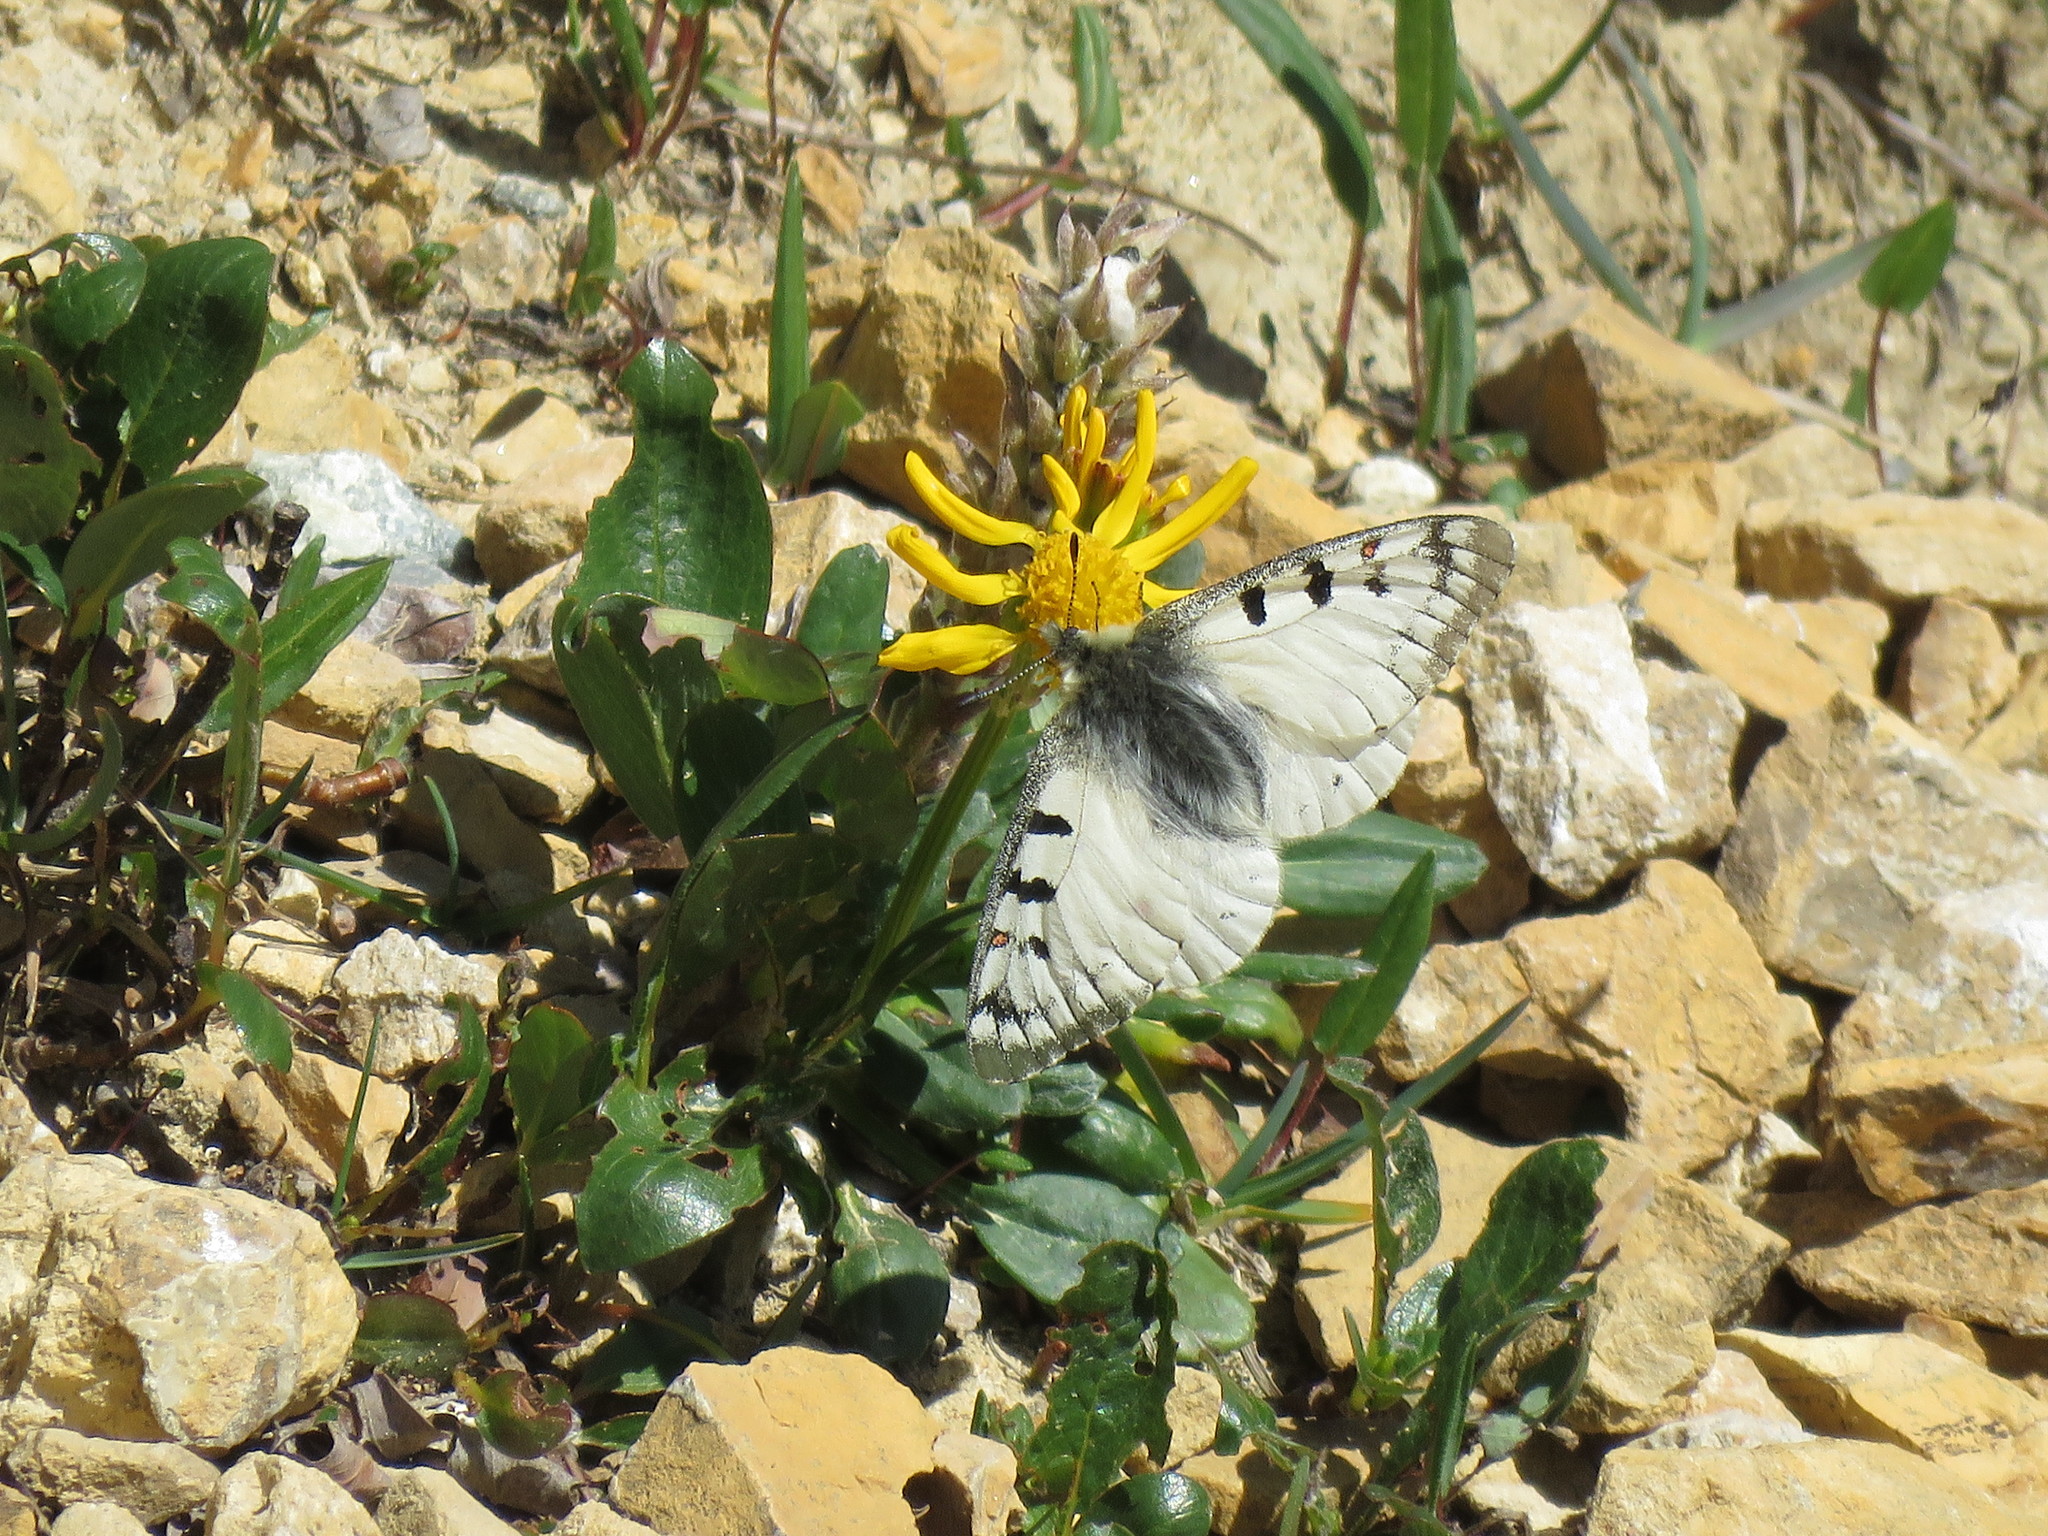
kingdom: Animalia
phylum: Arthropoda
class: Insecta
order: Lepidoptera
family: Papilionidae
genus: Parnassius
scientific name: Parnassius smintheus
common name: Mountain parnassian
